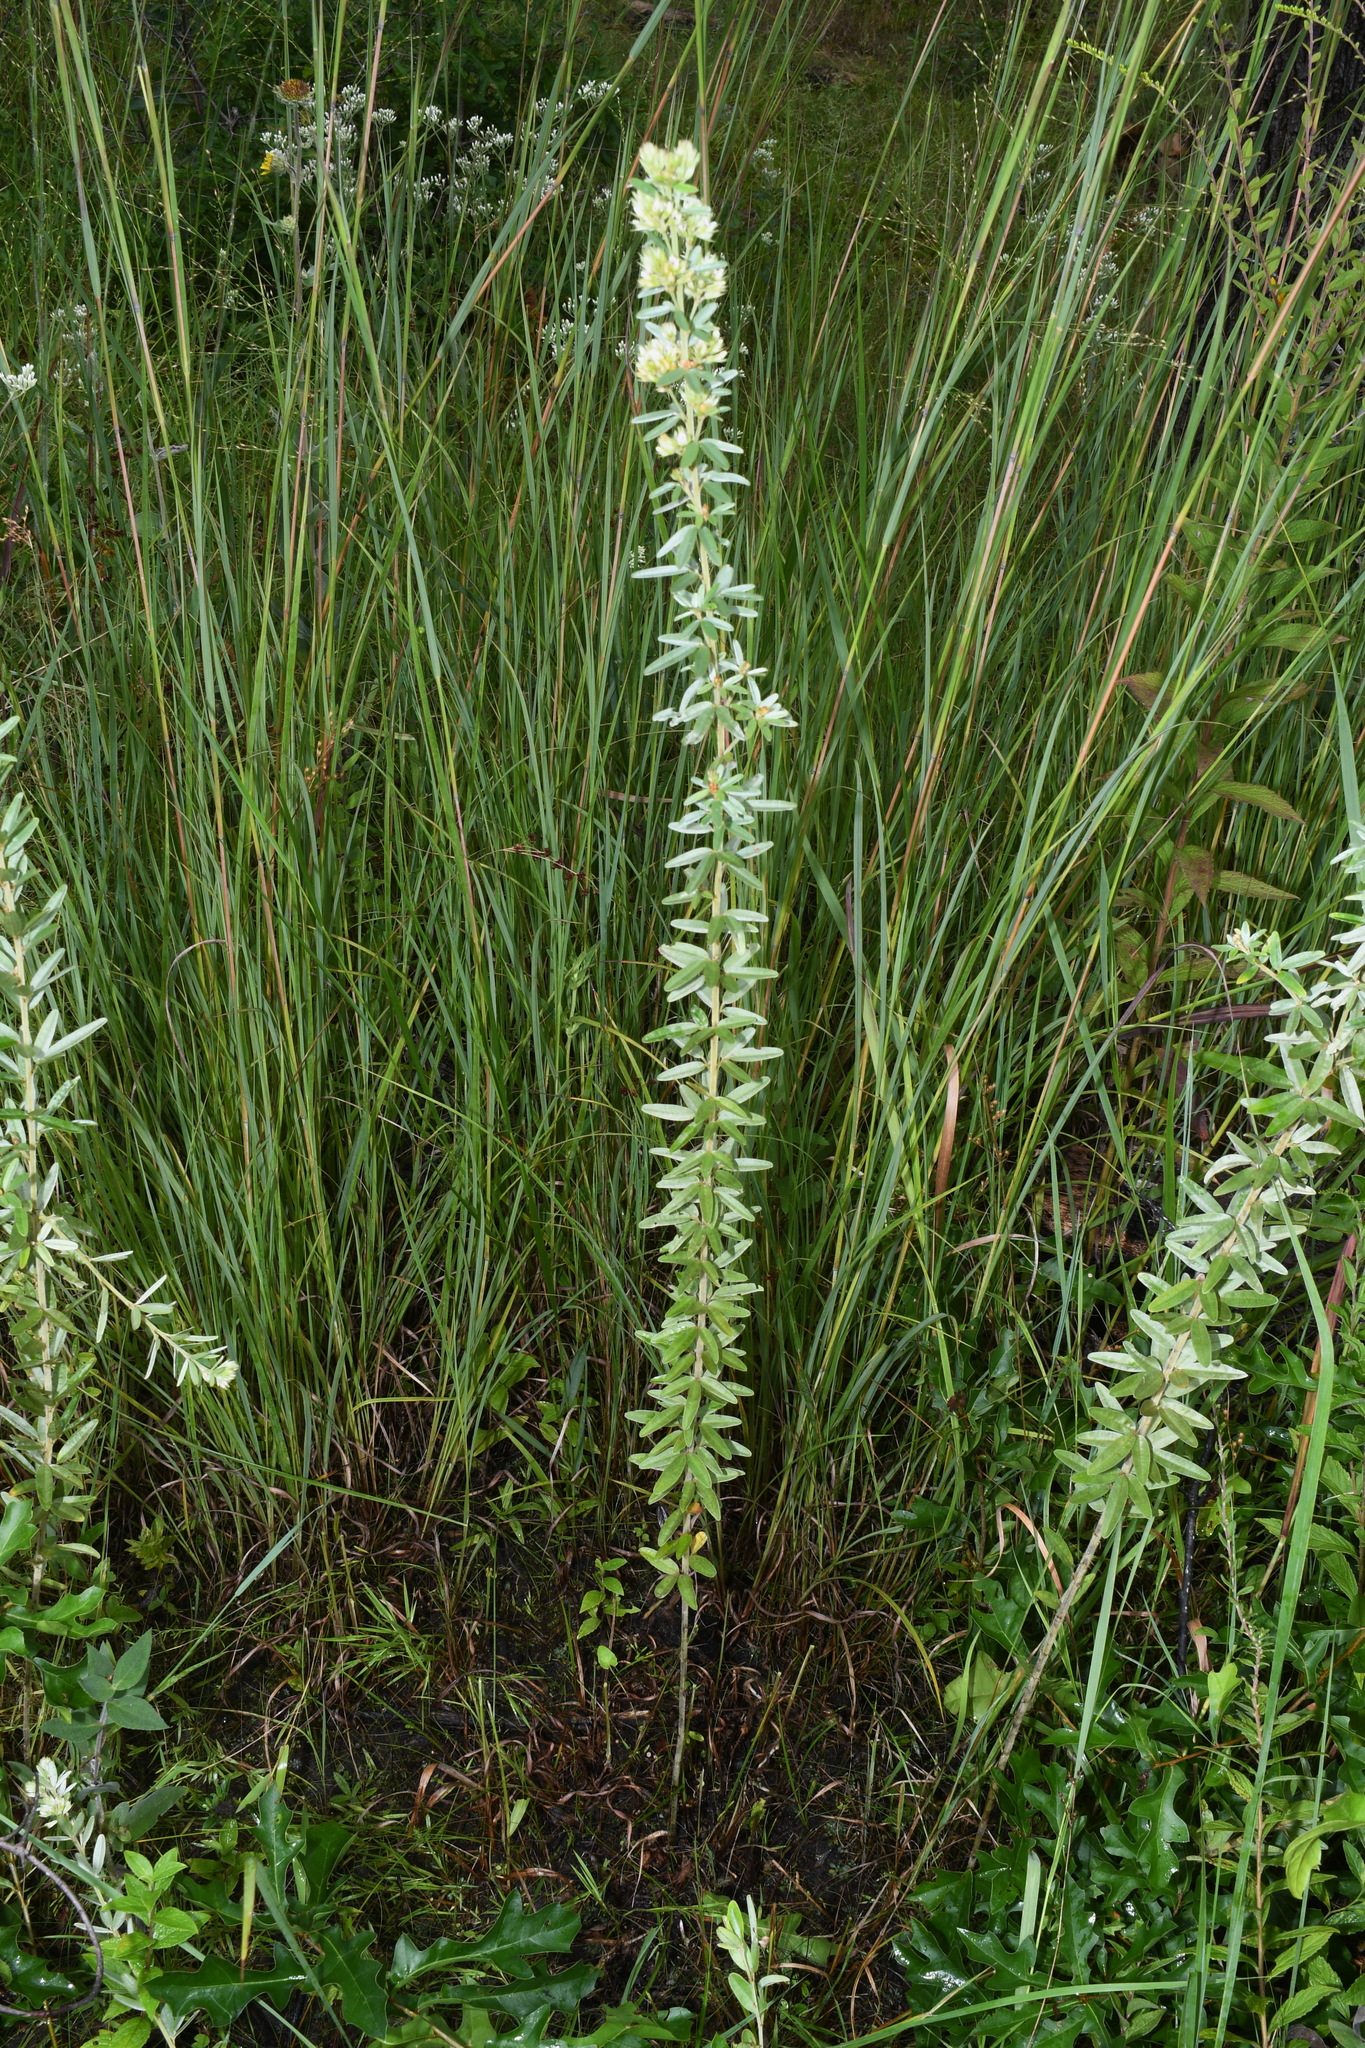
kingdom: Plantae
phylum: Tracheophyta
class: Magnoliopsida
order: Fabales
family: Fabaceae
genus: Lespedeza
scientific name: Lespedeza capitata
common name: Dusty clover
